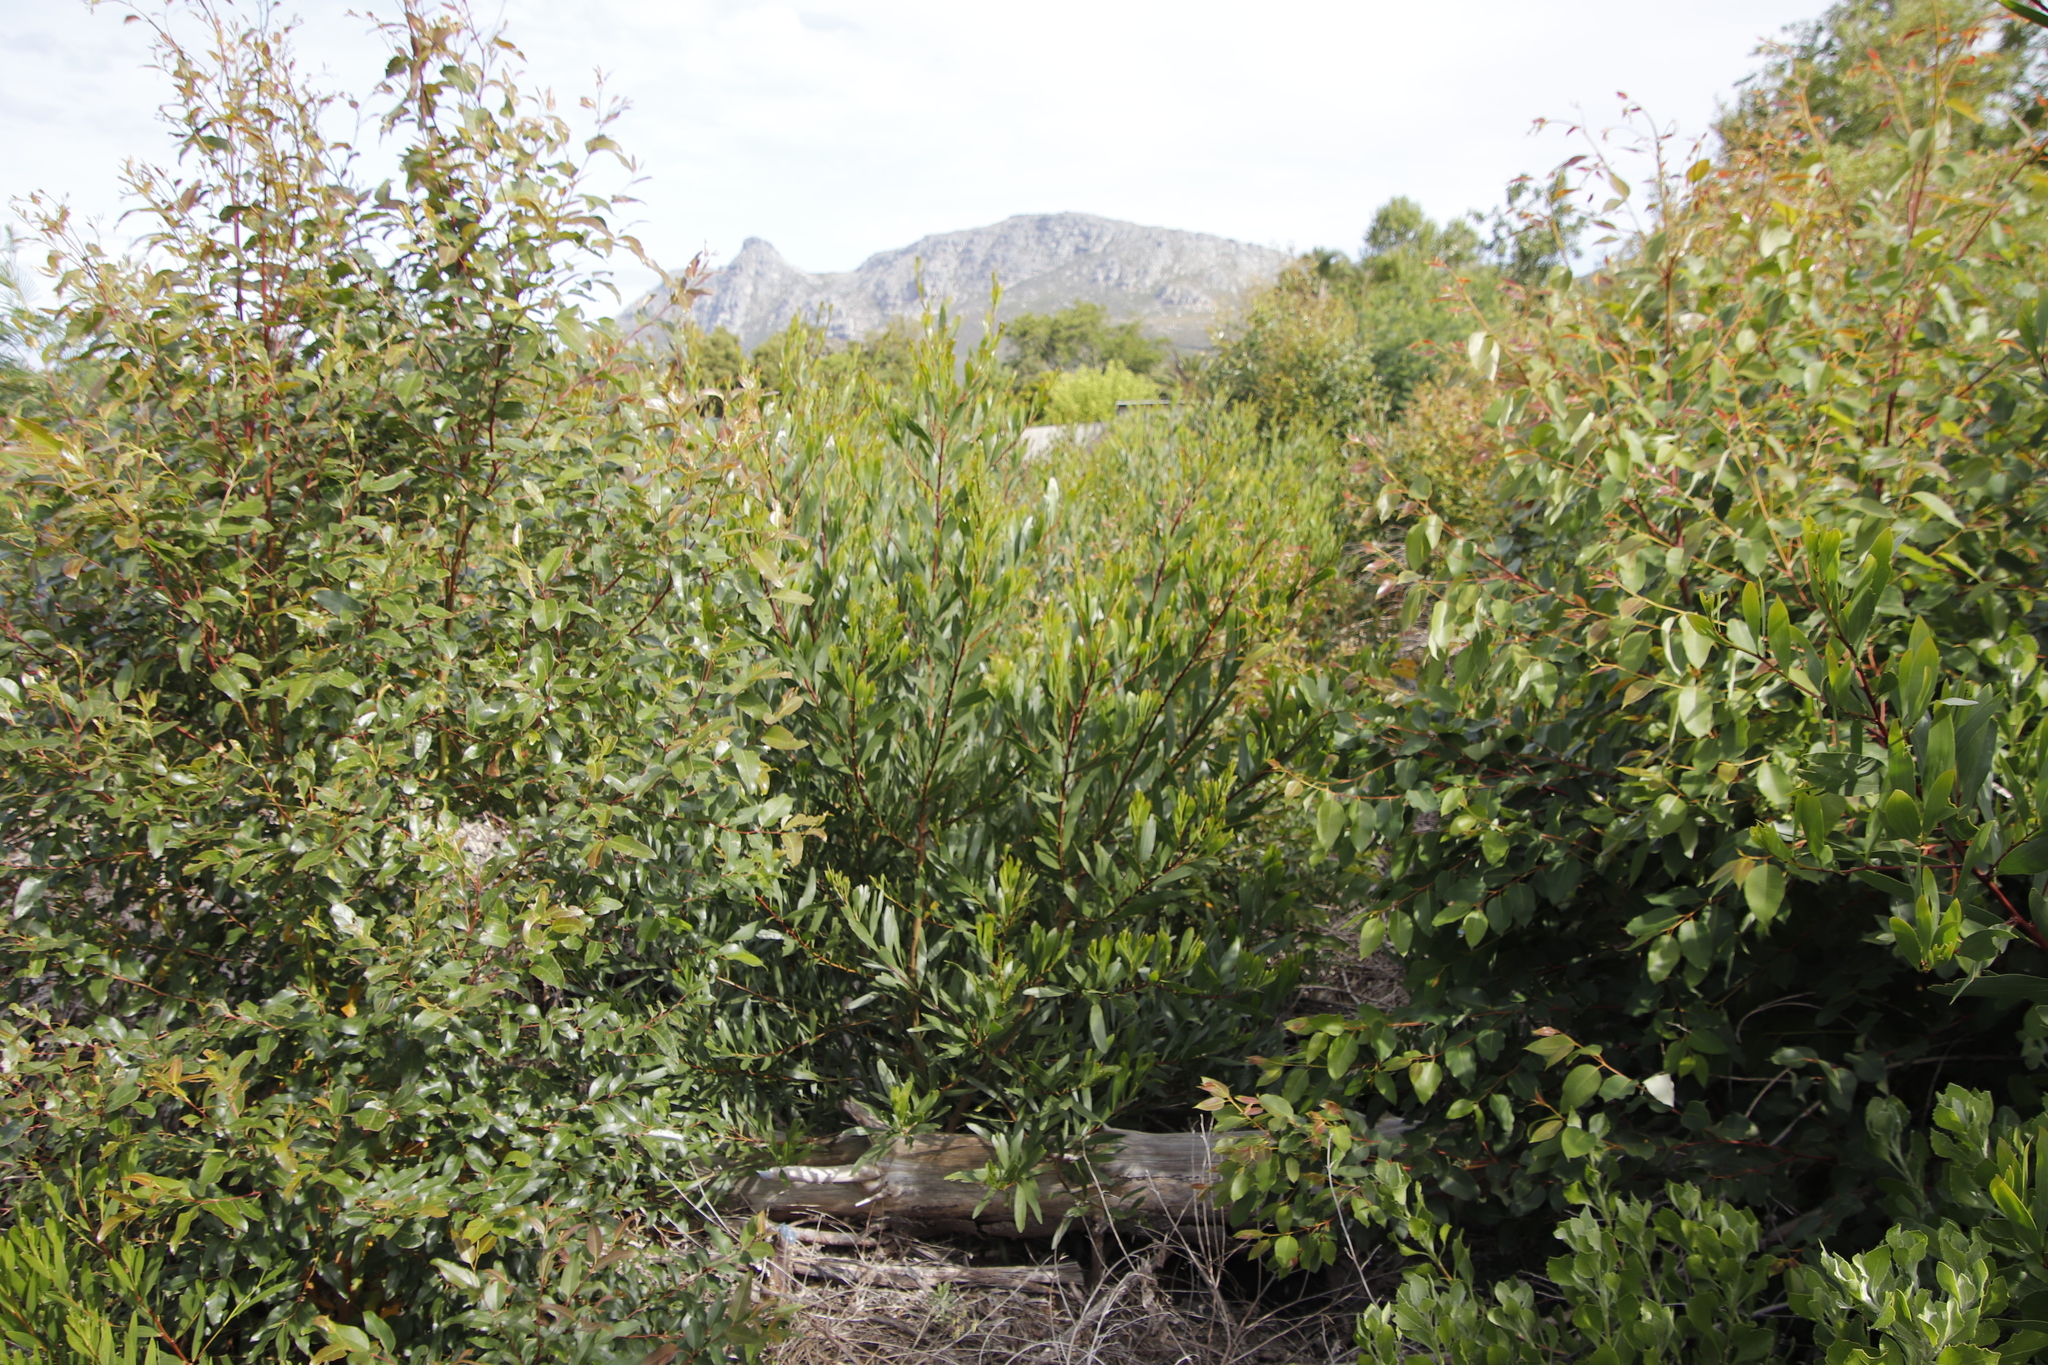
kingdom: Plantae
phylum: Tracheophyta
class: Magnoliopsida
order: Fabales
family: Fabaceae
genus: Acacia
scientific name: Acacia longifolia
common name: Sydney golden wattle
